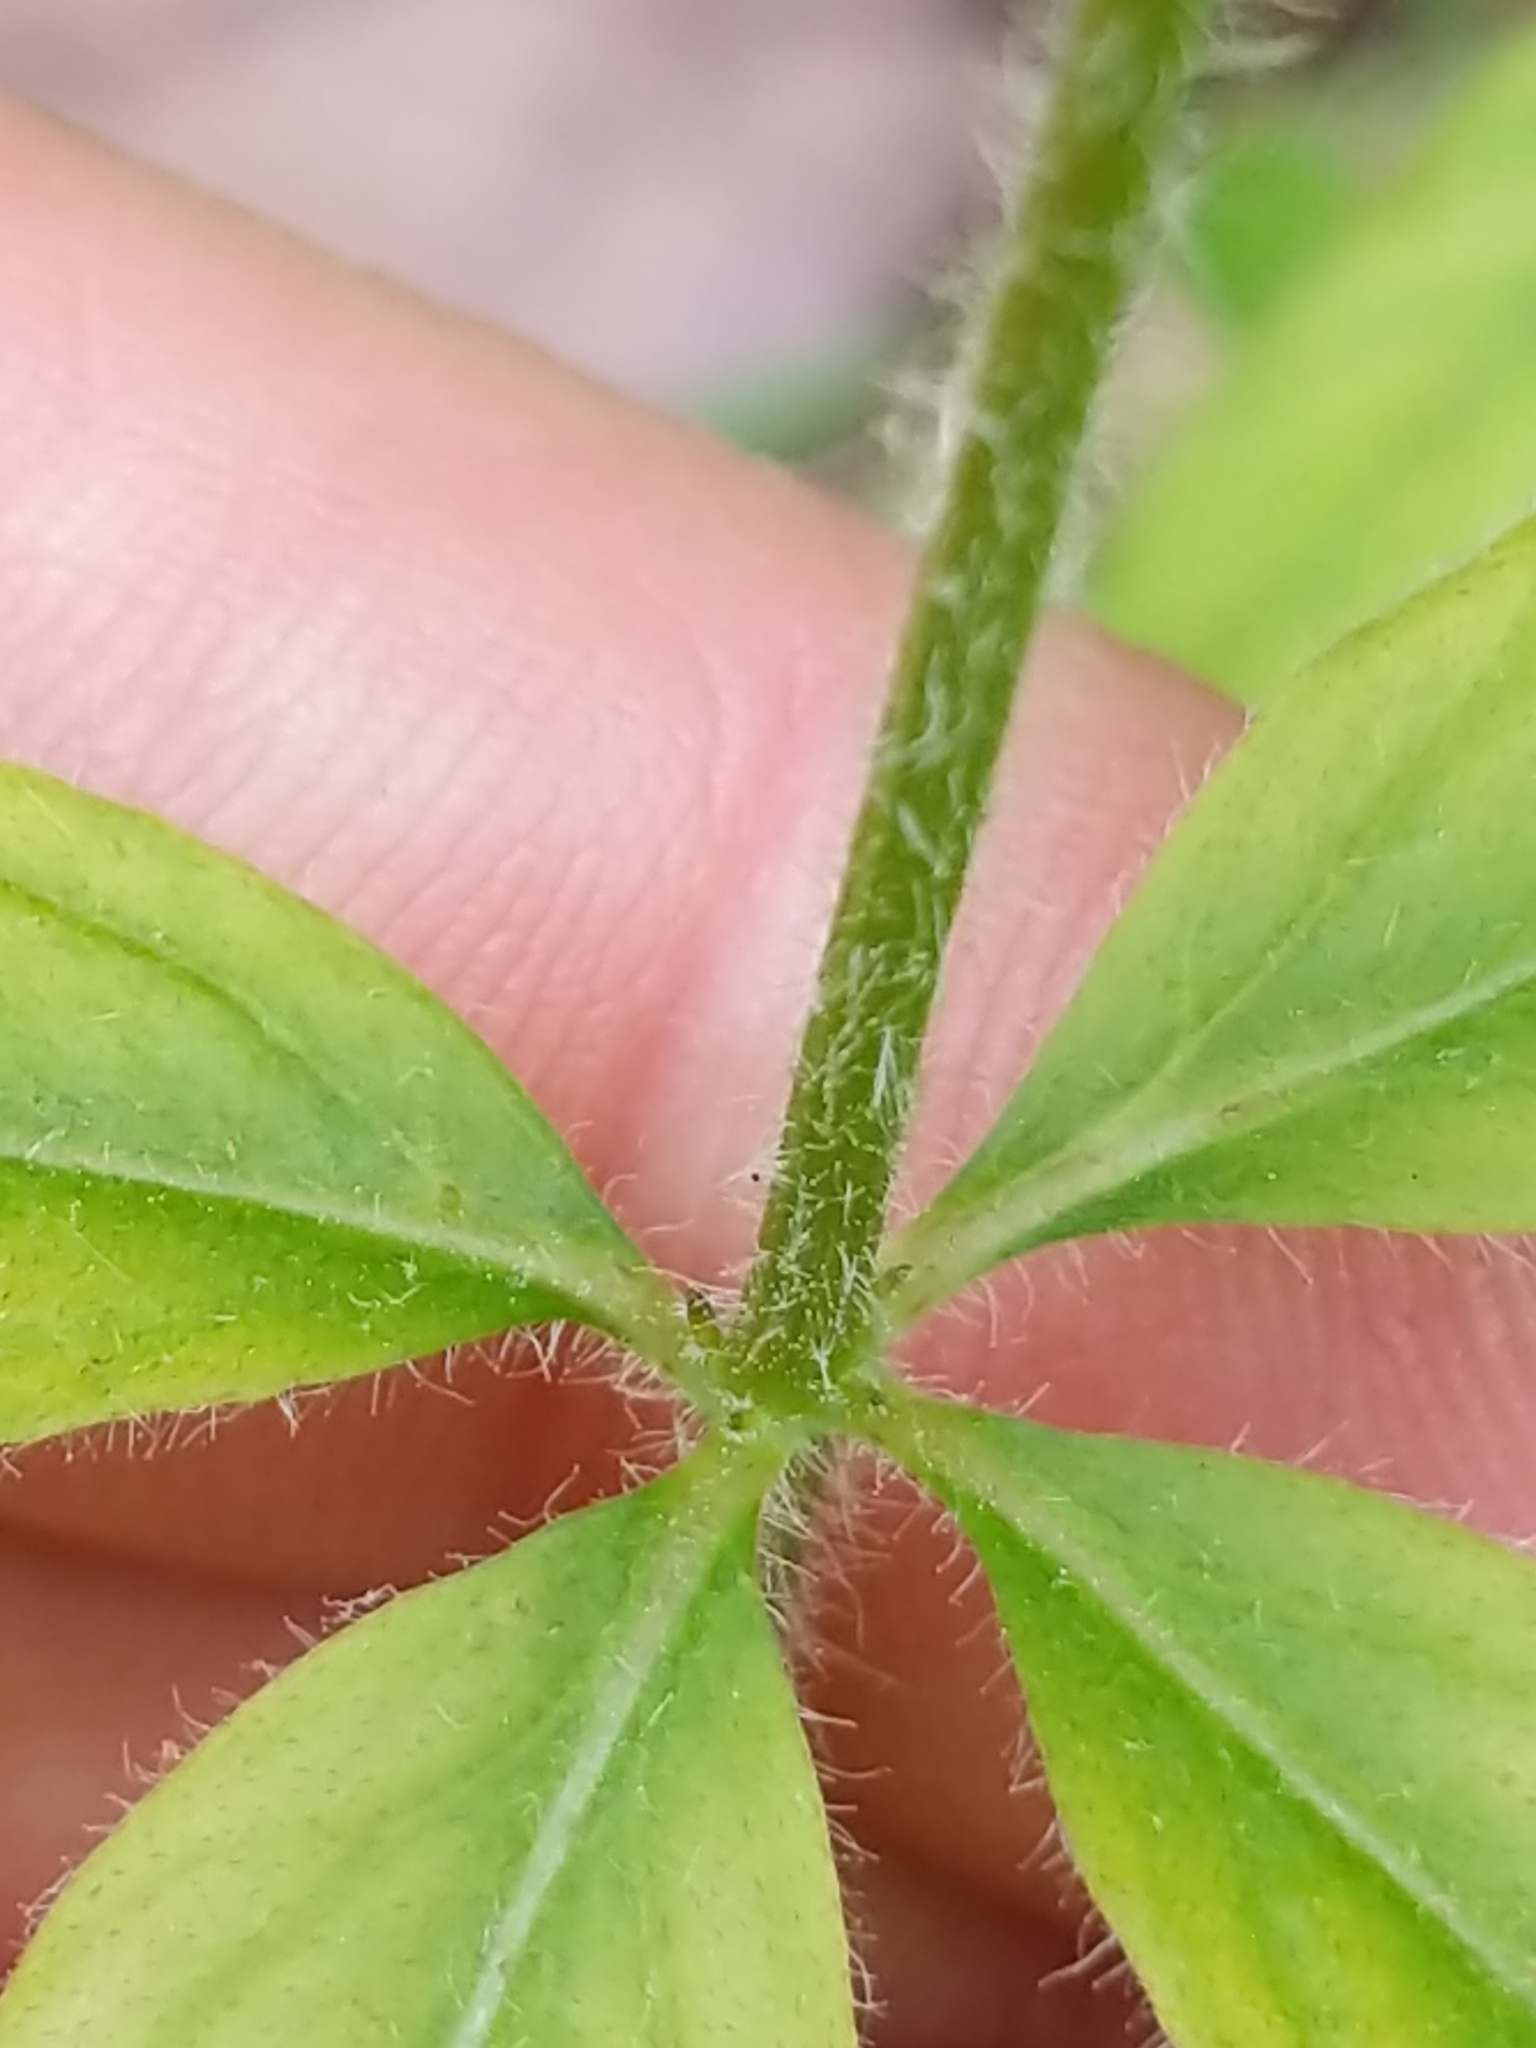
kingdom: Plantae
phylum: Tracheophyta
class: Magnoliopsida
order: Ericales
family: Primulaceae
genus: Lysimachia
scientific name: Lysimachia quadrifolia
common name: Whorled loosestrife
